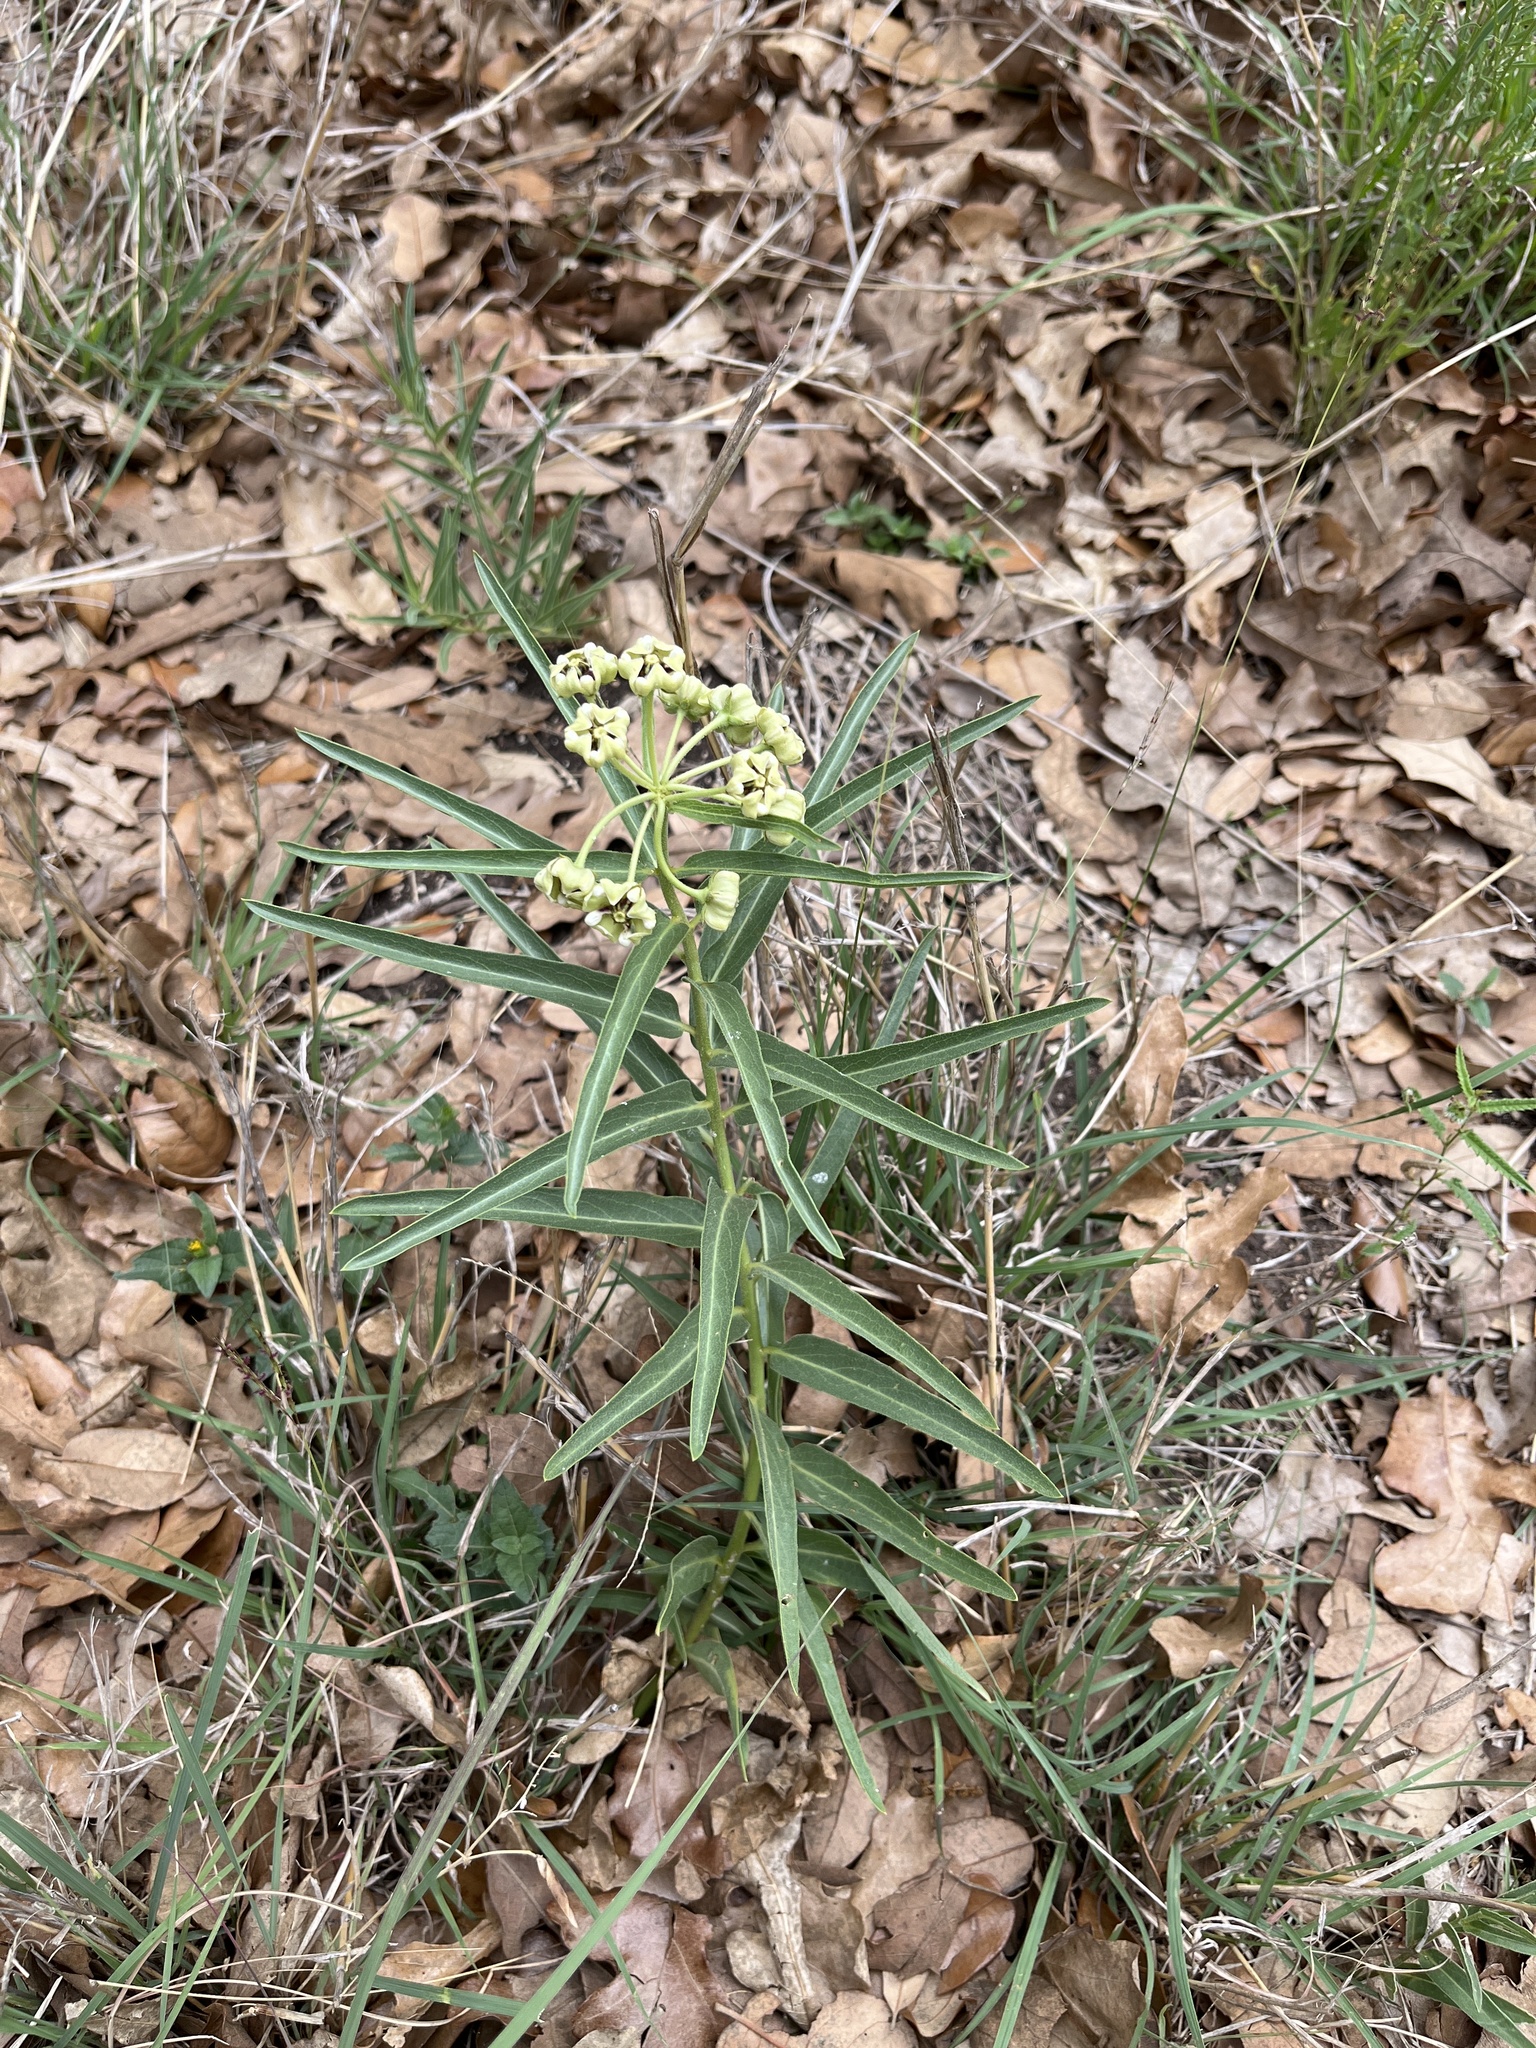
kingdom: Plantae
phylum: Tracheophyta
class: Magnoliopsida
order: Gentianales
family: Apocynaceae
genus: Asclepias
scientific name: Asclepias asperula
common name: Antelope horns
